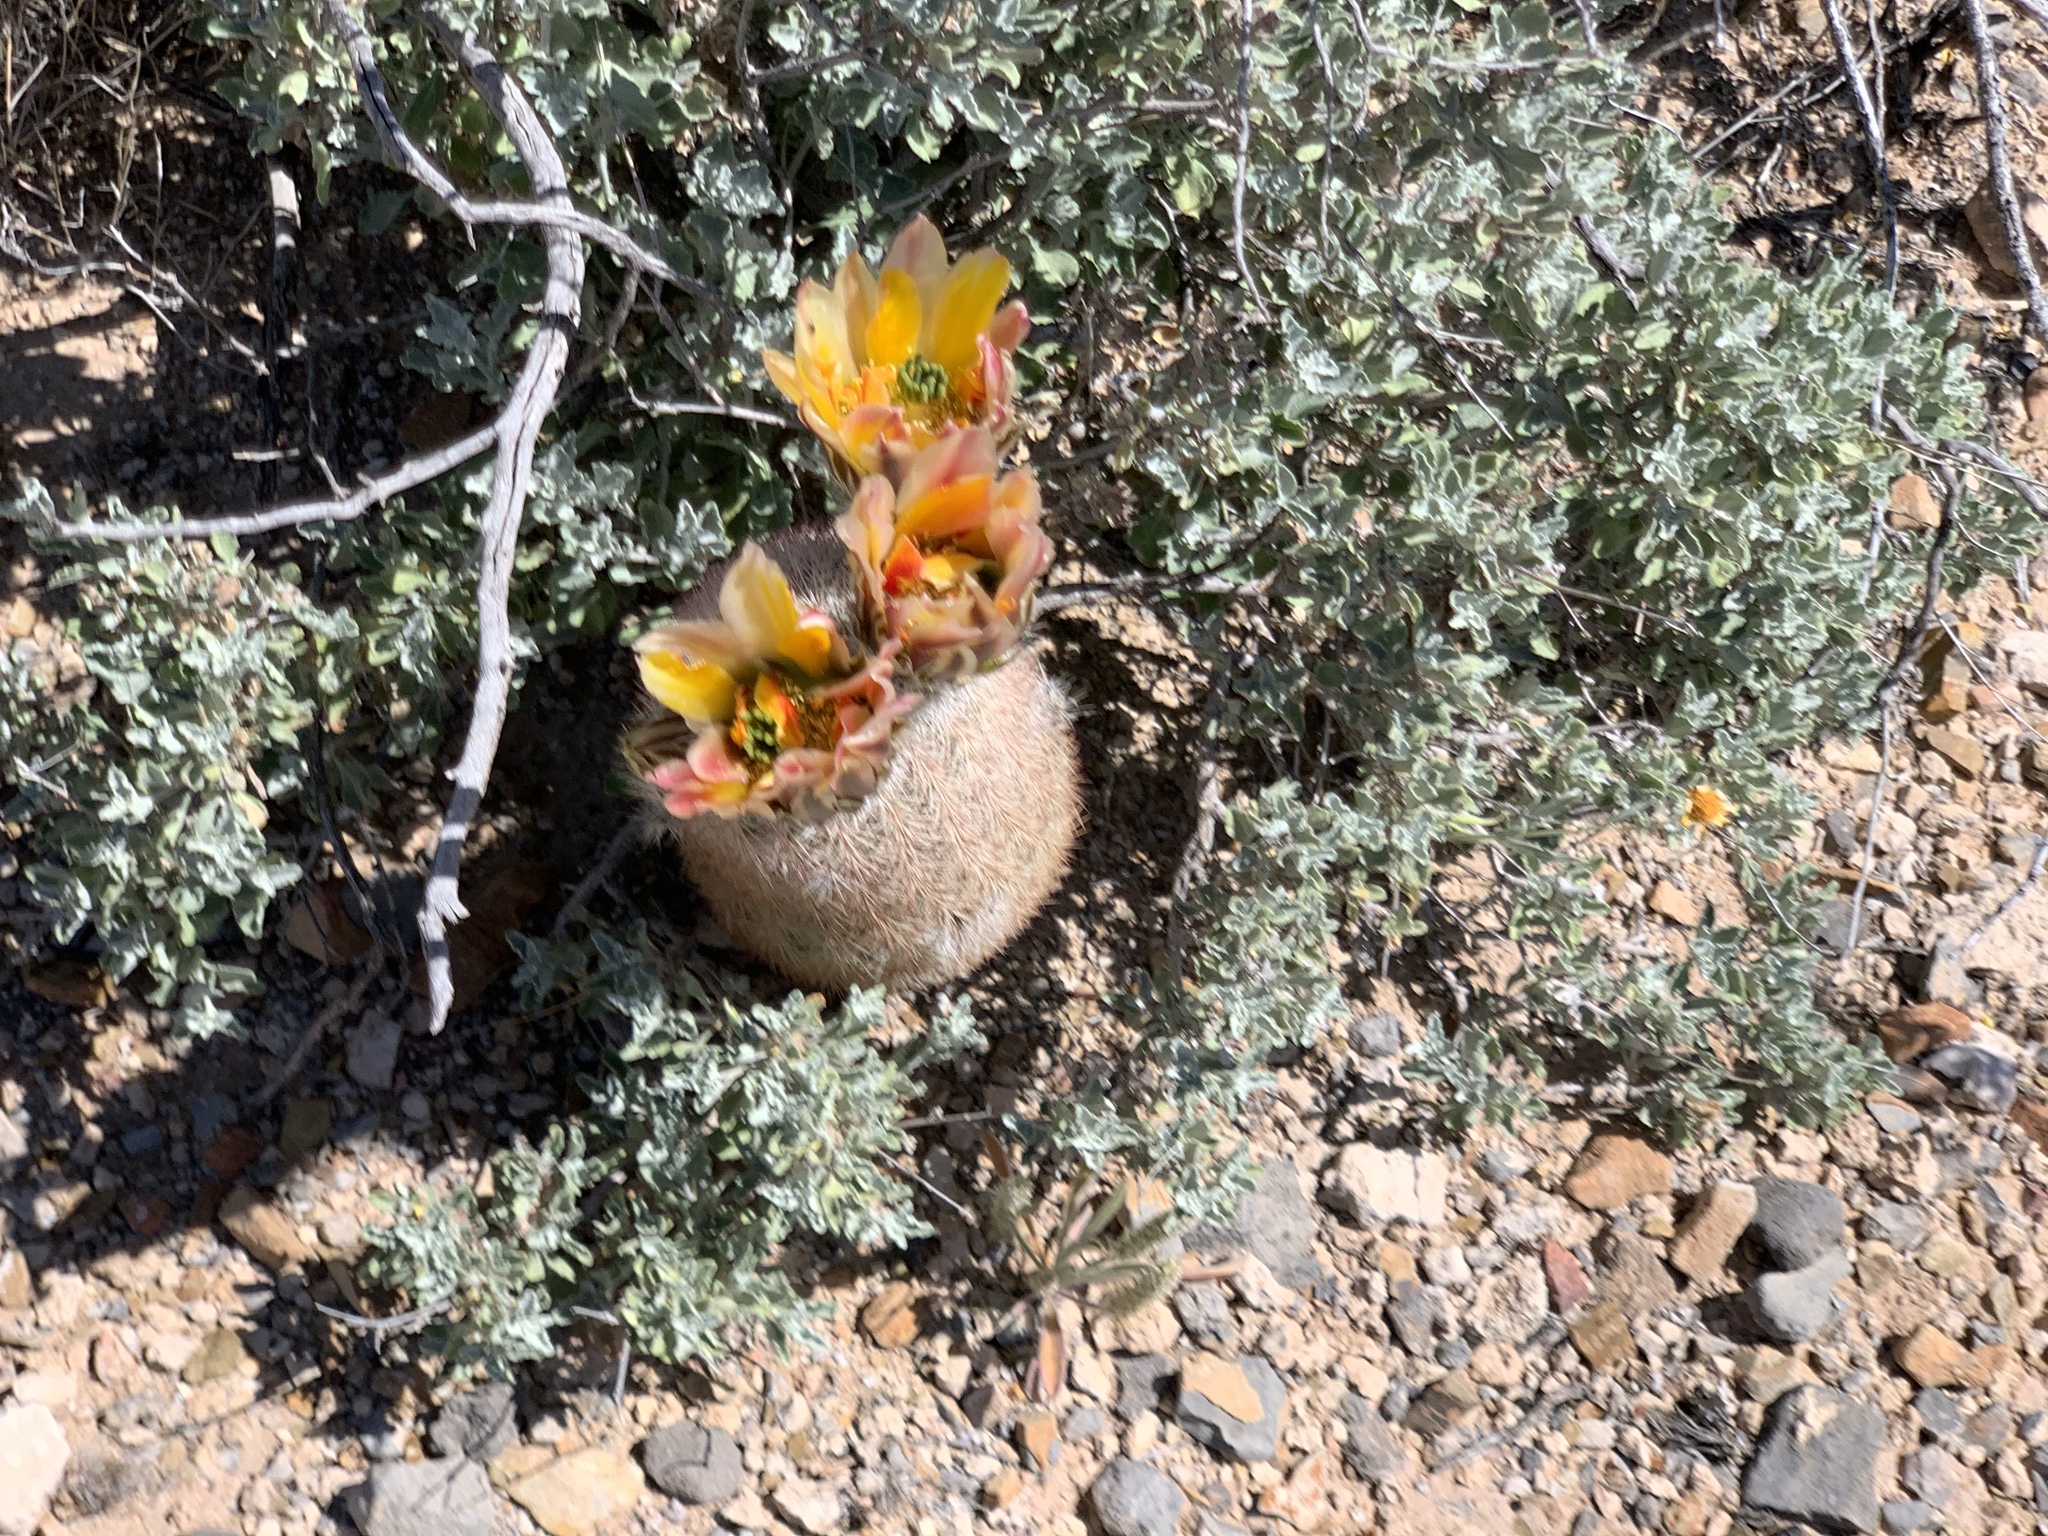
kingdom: Plantae
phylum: Tracheophyta
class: Magnoliopsida
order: Caryophyllales
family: Cactaceae
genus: Echinocereus
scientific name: Echinocereus dasyacanthus
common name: Spiny hedgehog cactus
